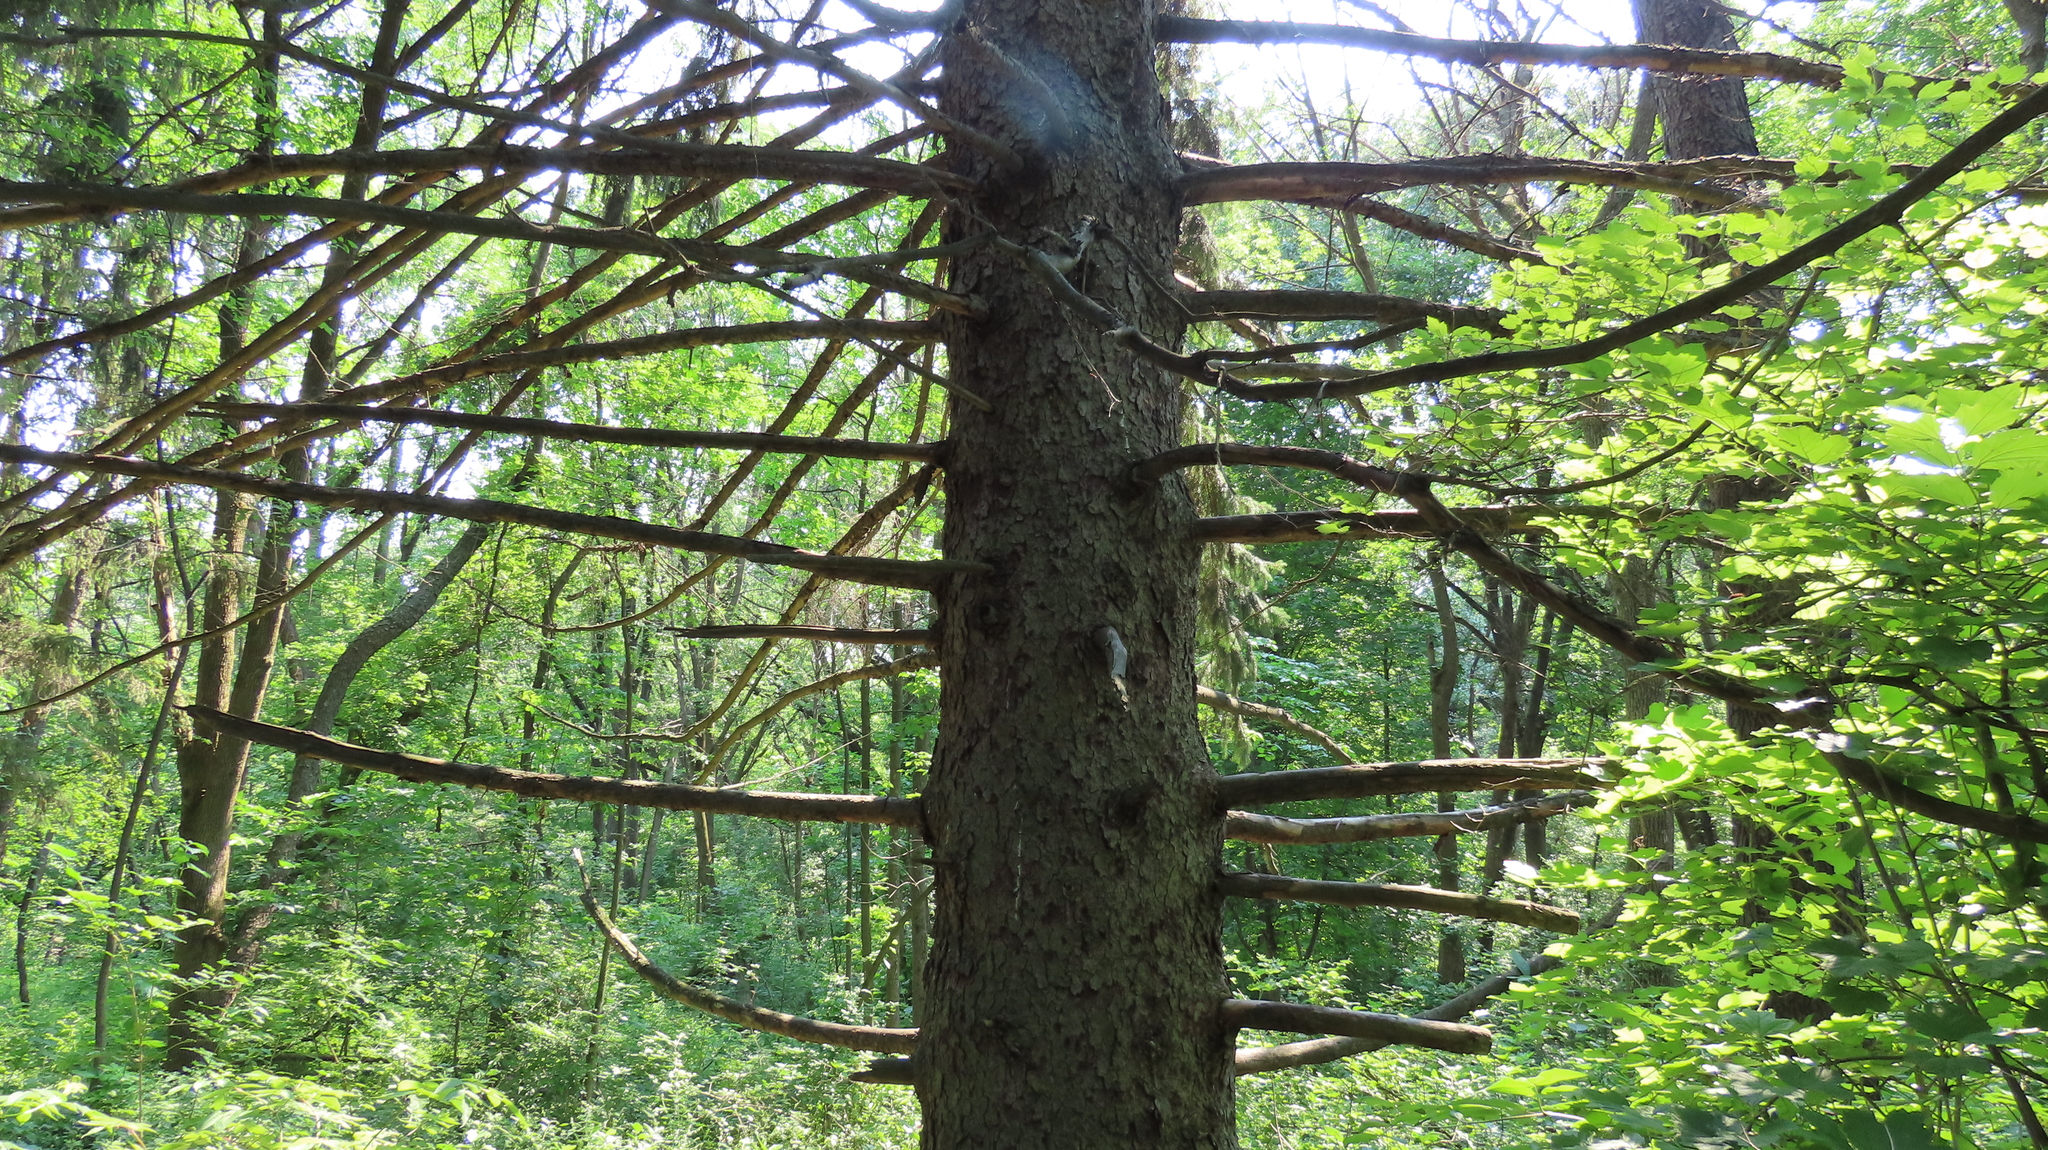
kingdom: Plantae
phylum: Tracheophyta
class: Pinopsida
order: Pinales
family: Pinaceae
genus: Picea
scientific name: Picea abies
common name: Norway spruce
